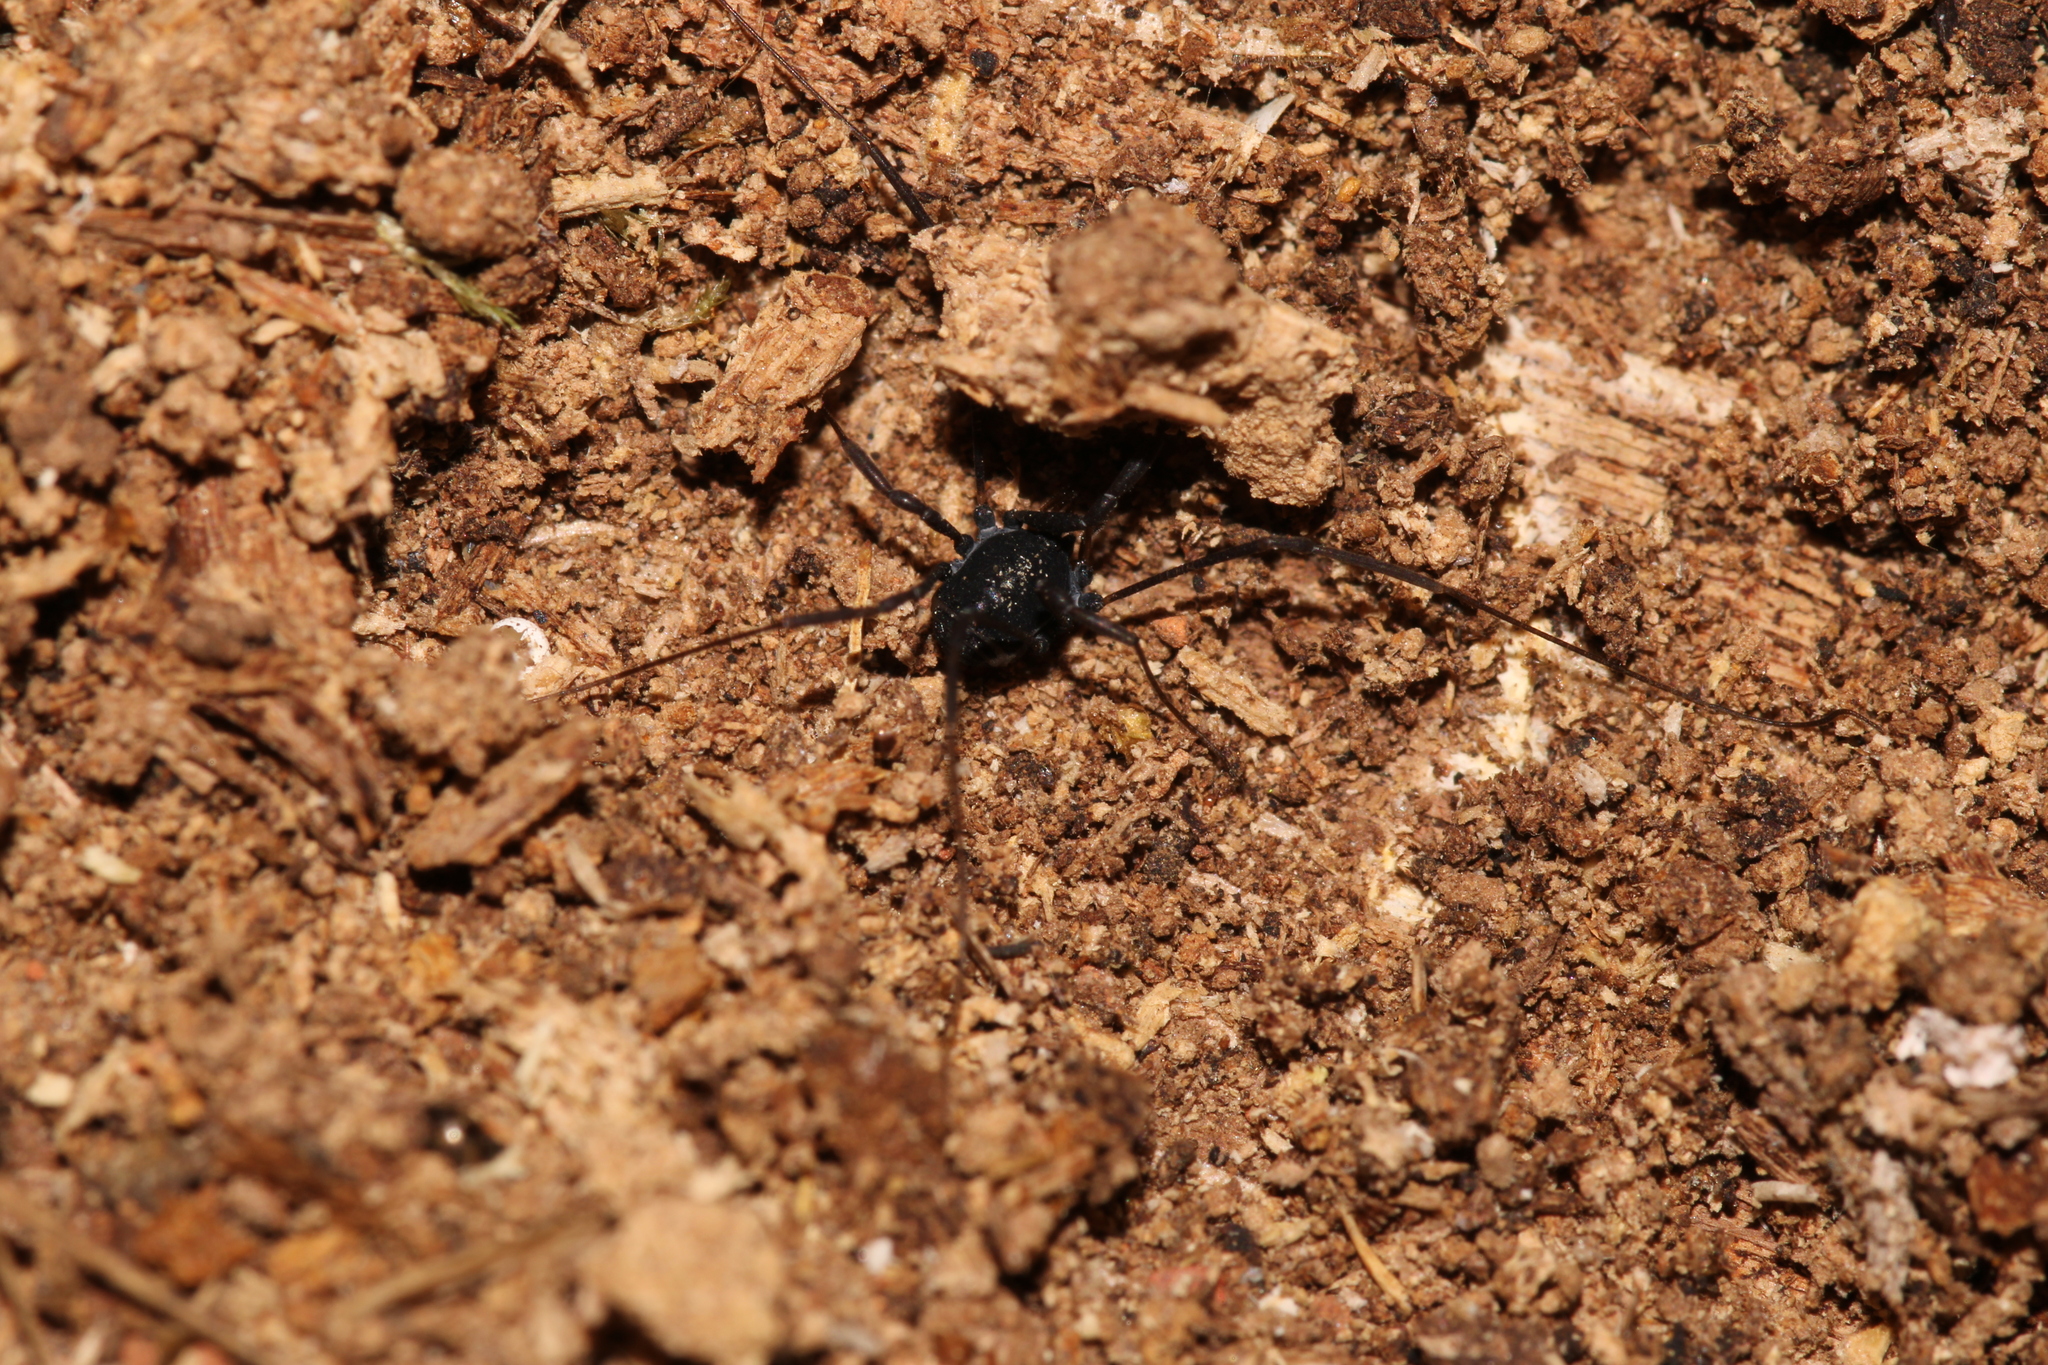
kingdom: Animalia
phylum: Arthropoda
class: Arachnida
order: Opiliones
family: Nemastomatidae
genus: Histricostoma
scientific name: Histricostoma dentipalpe
